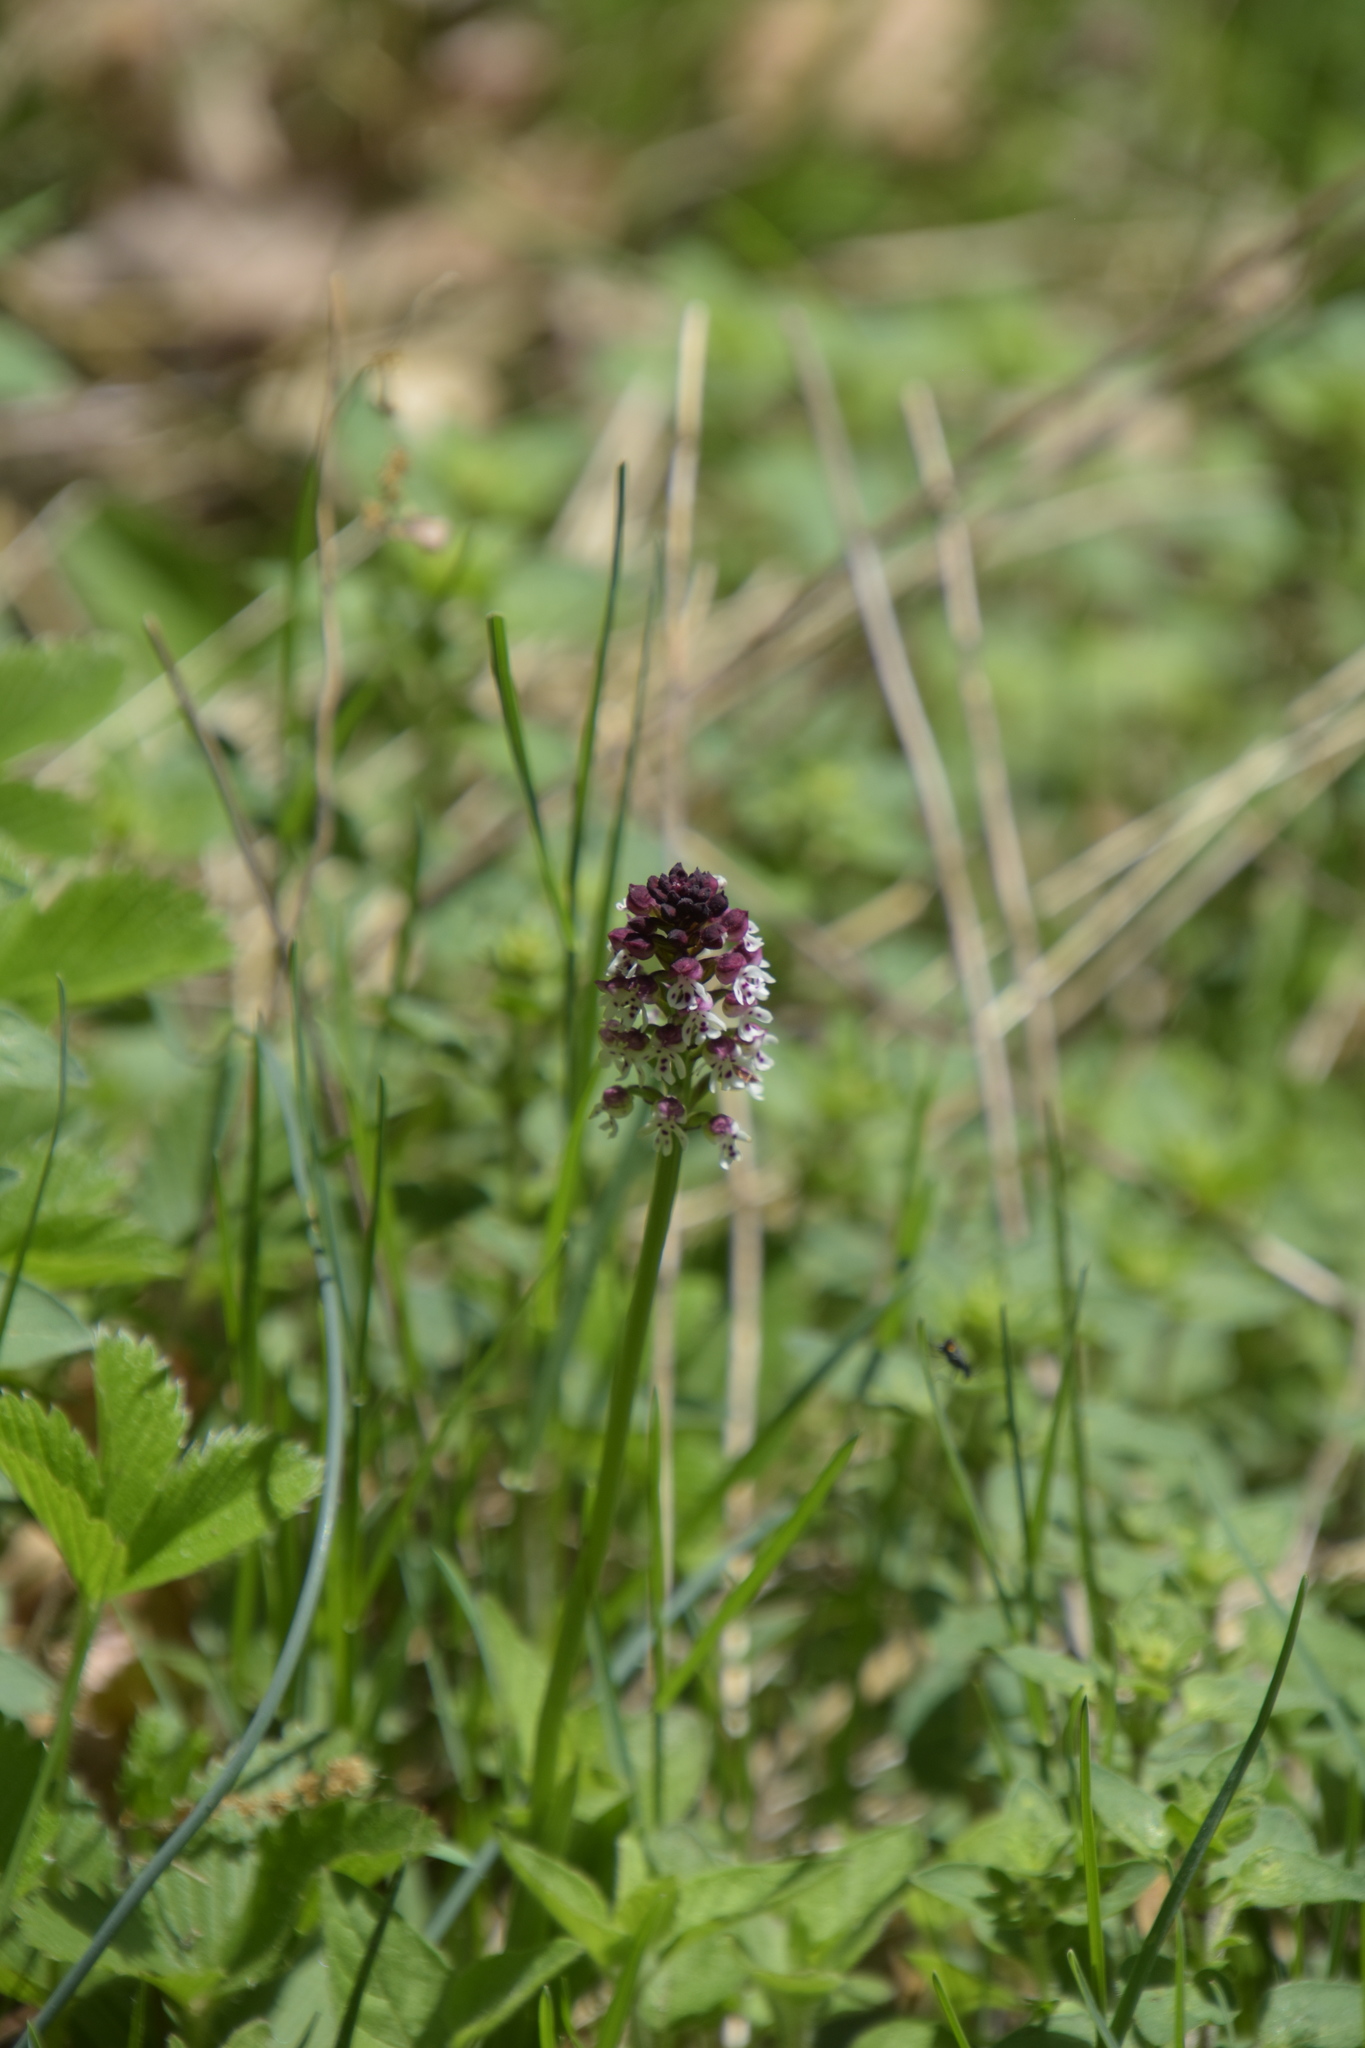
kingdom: Plantae
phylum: Tracheophyta
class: Liliopsida
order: Asparagales
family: Orchidaceae
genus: Neotinea
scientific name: Neotinea ustulata
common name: Burnt orchid
